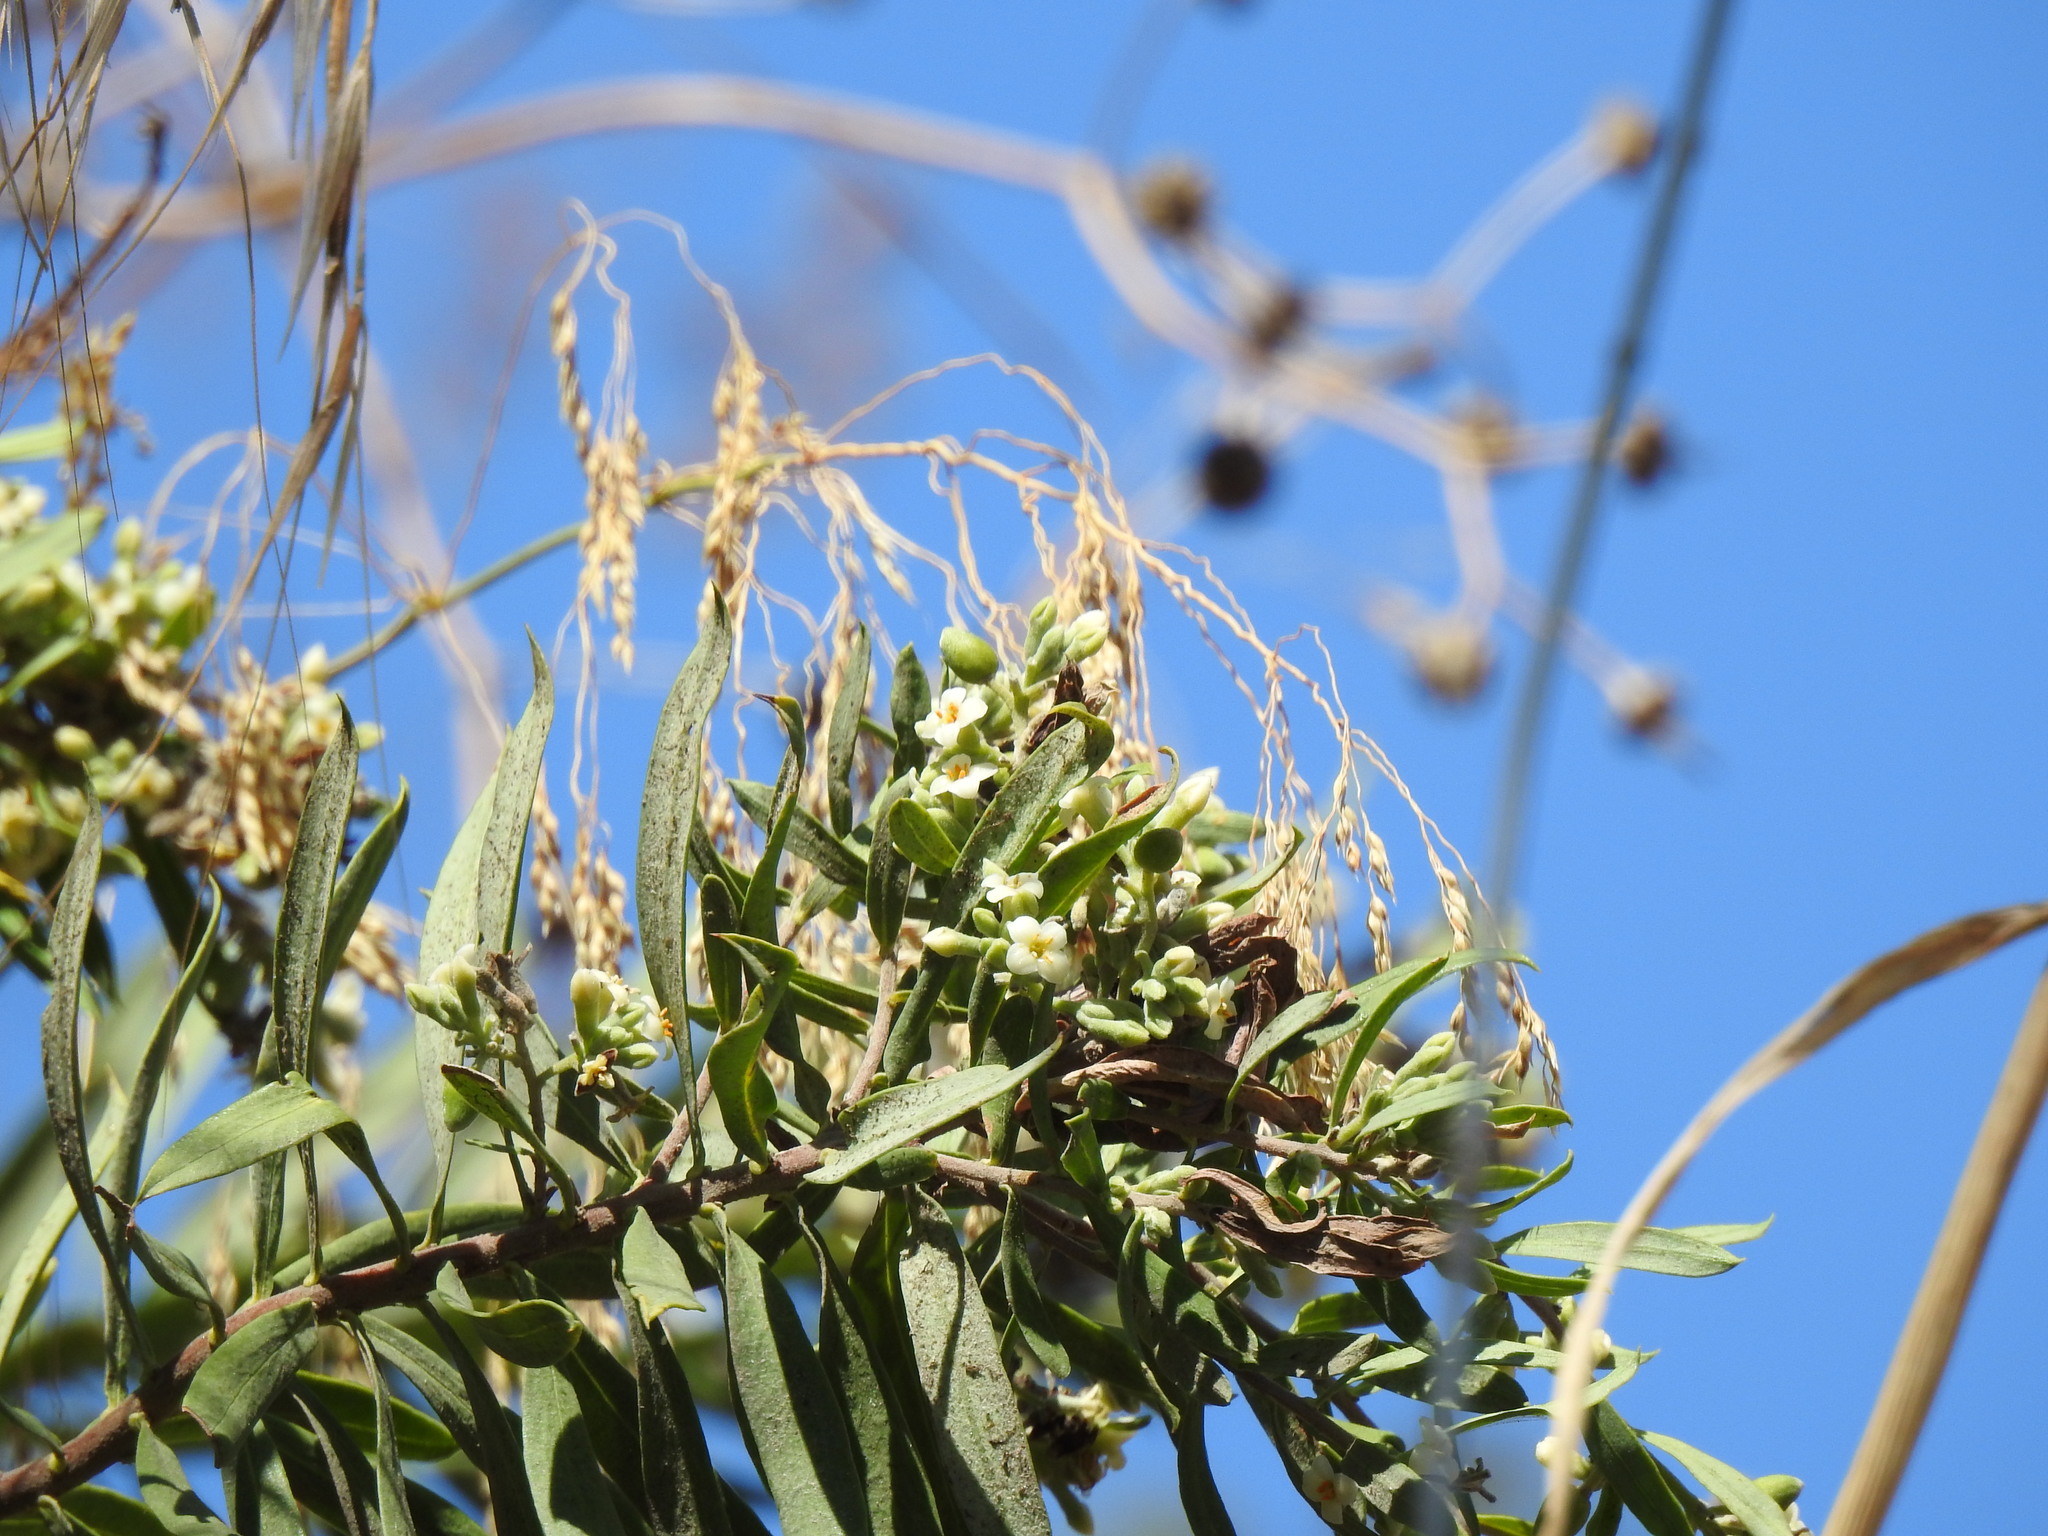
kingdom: Plantae
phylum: Tracheophyta
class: Magnoliopsida
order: Malvales
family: Thymelaeaceae
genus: Daphne
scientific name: Daphne gnidium
